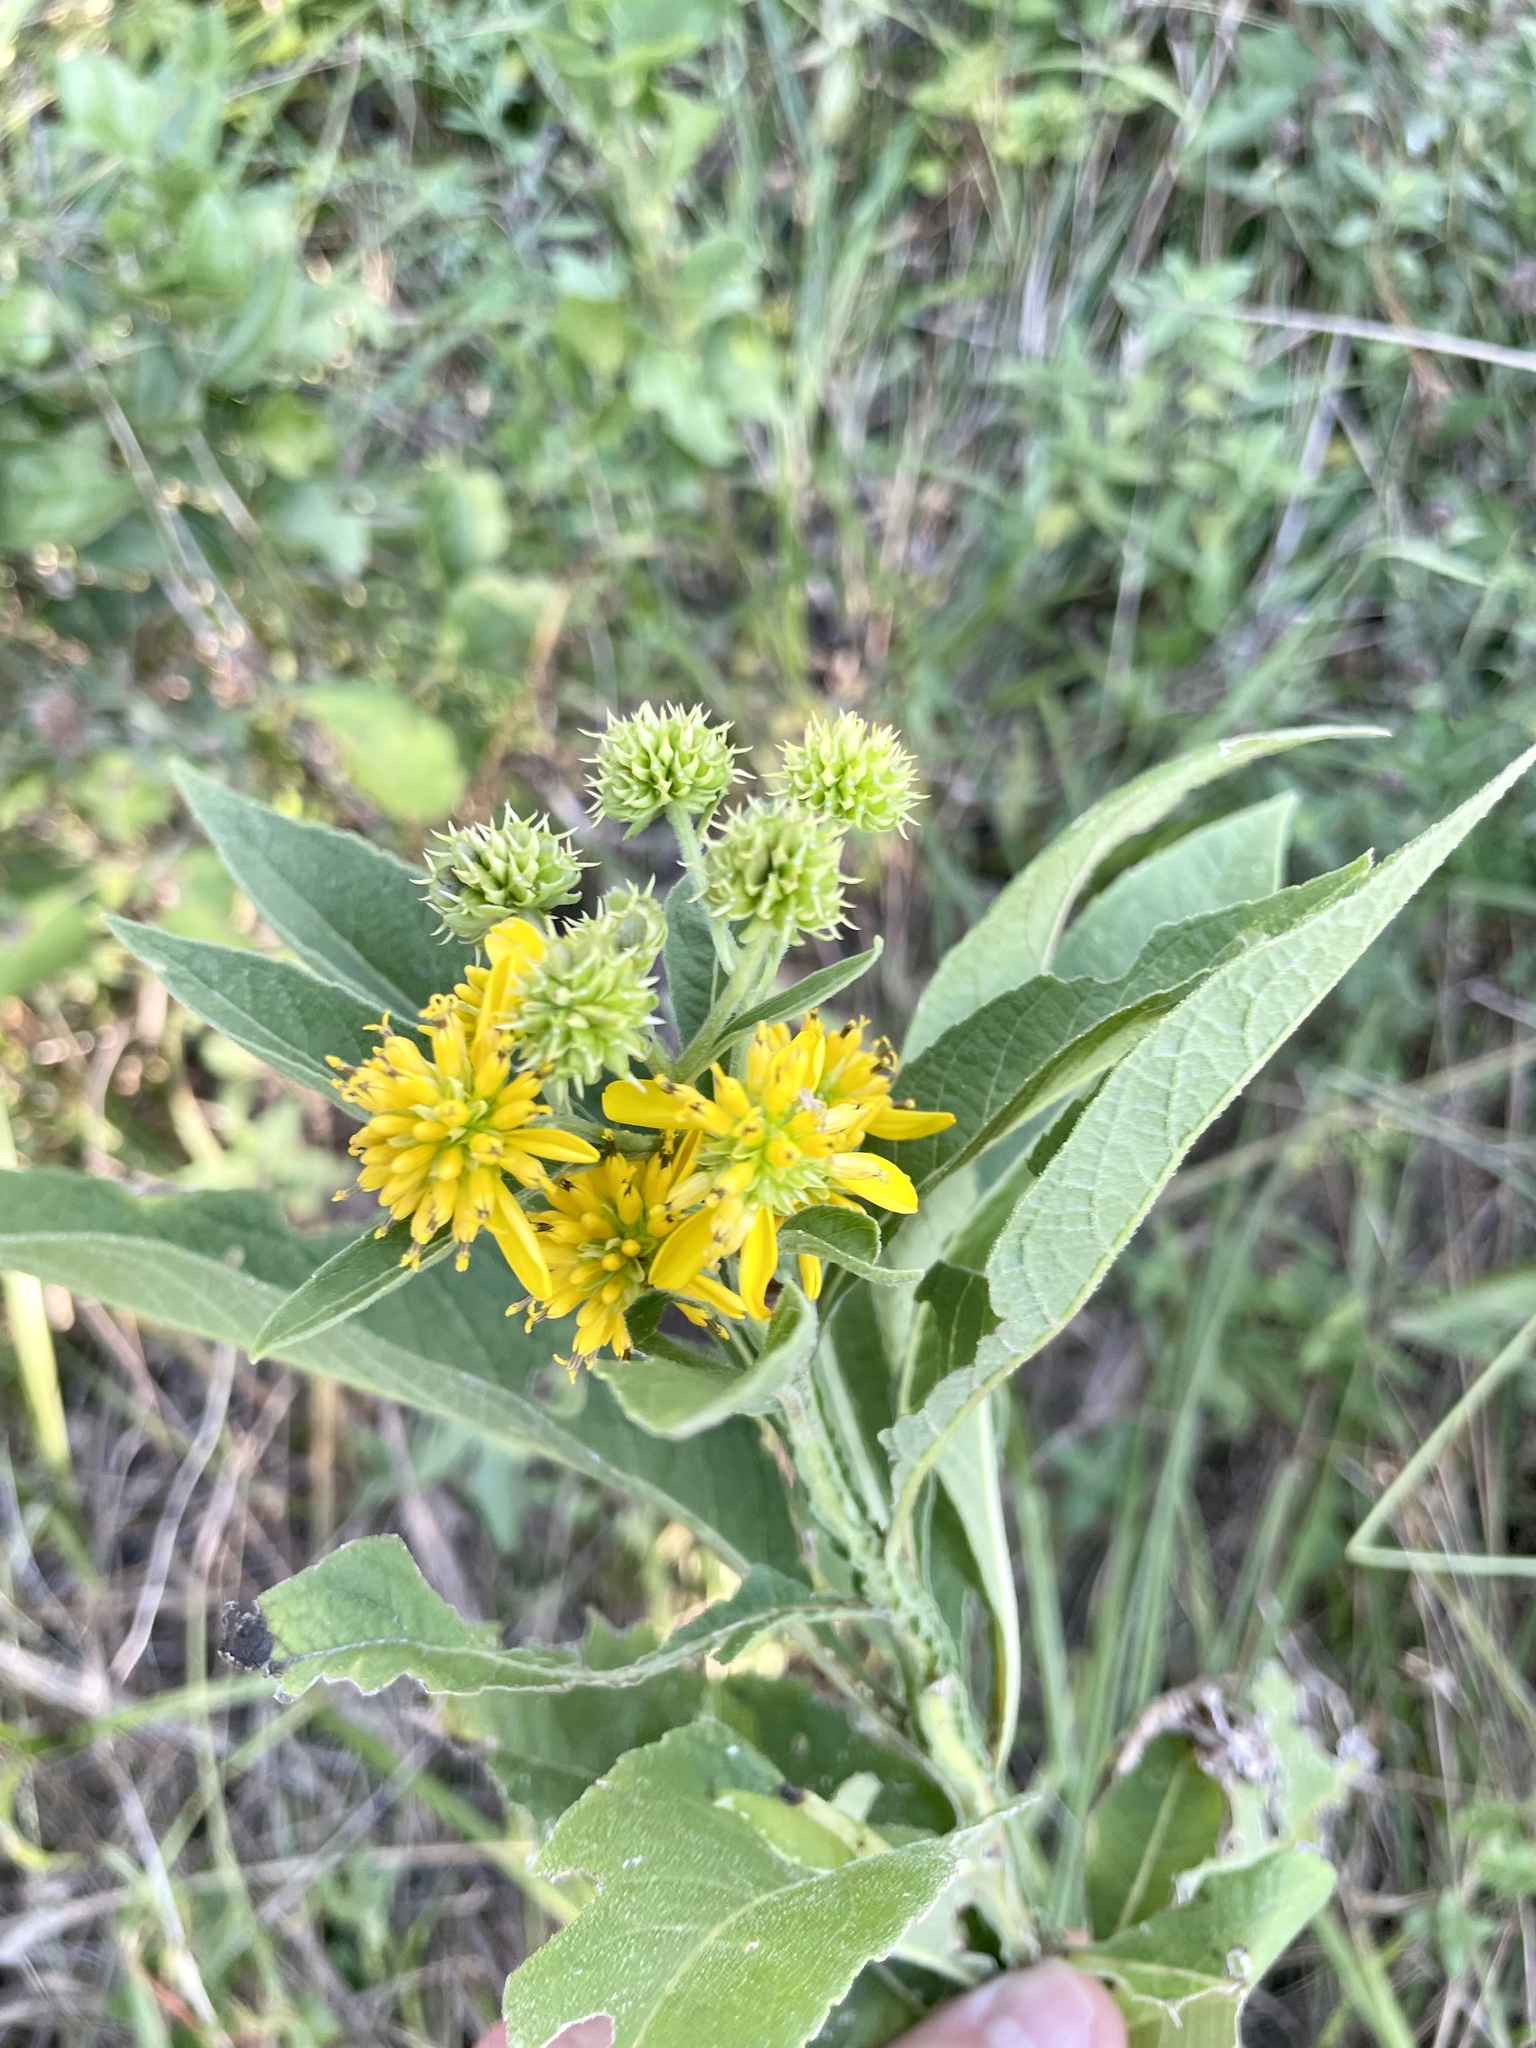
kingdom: Plantae
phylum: Tracheophyta
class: Magnoliopsida
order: Asterales
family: Asteraceae
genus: Verbesina
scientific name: Verbesina alternifolia
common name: Wingstem
